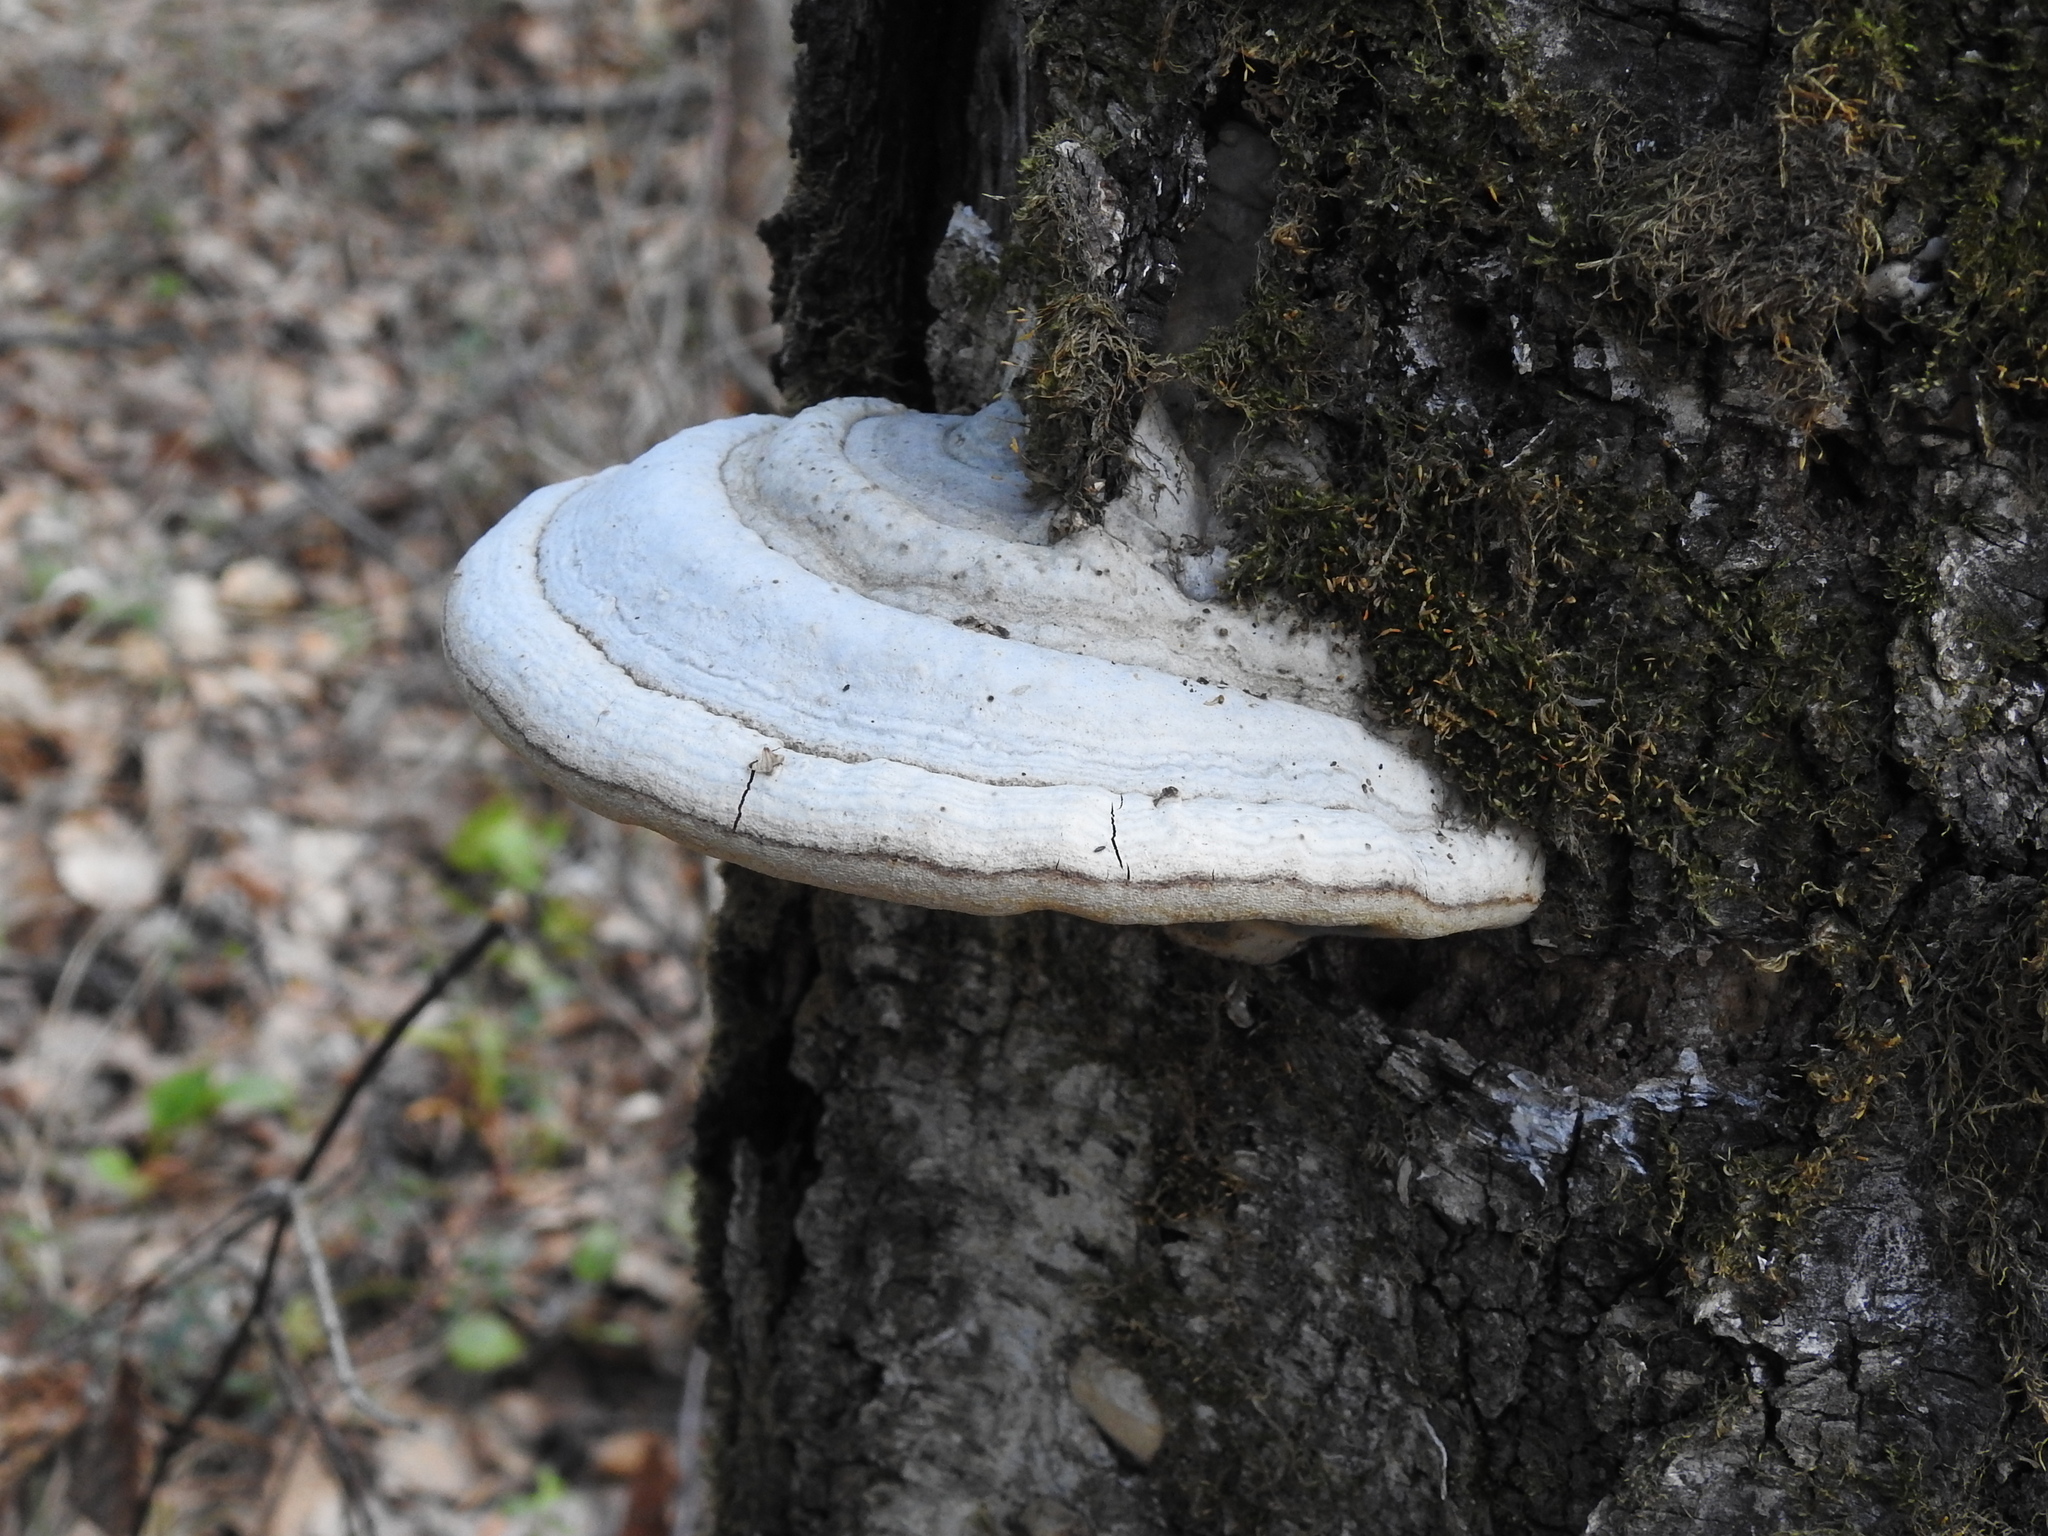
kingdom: Fungi
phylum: Basidiomycota
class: Agaricomycetes
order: Polyporales
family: Polyporaceae
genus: Fomes
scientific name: Fomes fomentarius
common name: Hoof fungus
